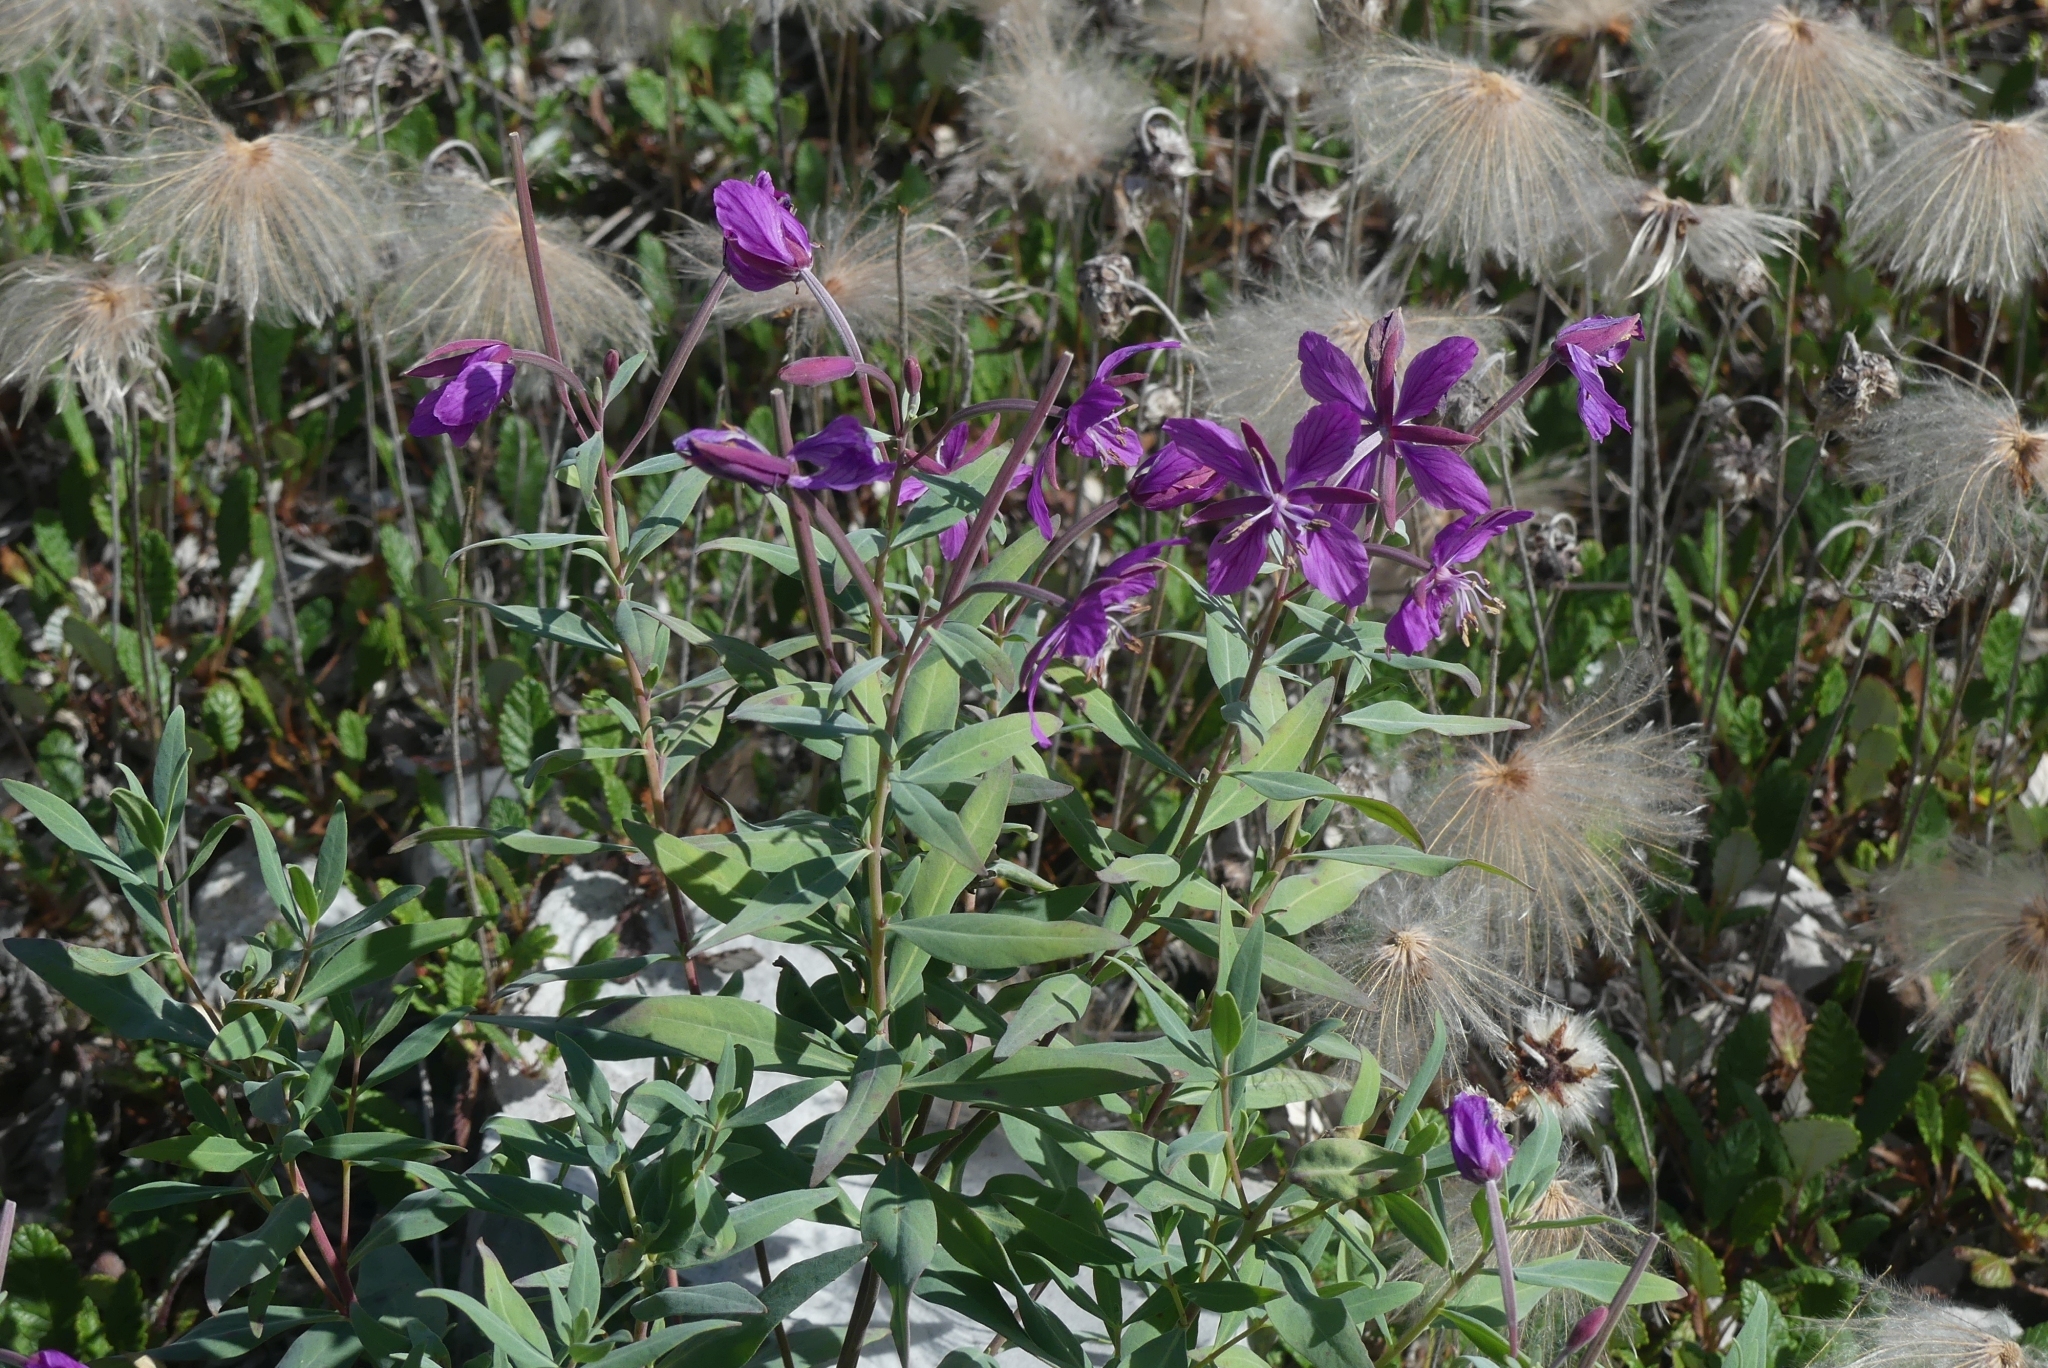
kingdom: Plantae
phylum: Tracheophyta
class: Magnoliopsida
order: Myrtales
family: Onagraceae
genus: Chamaenerion
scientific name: Chamaenerion latifolium
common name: Dwarf fireweed
